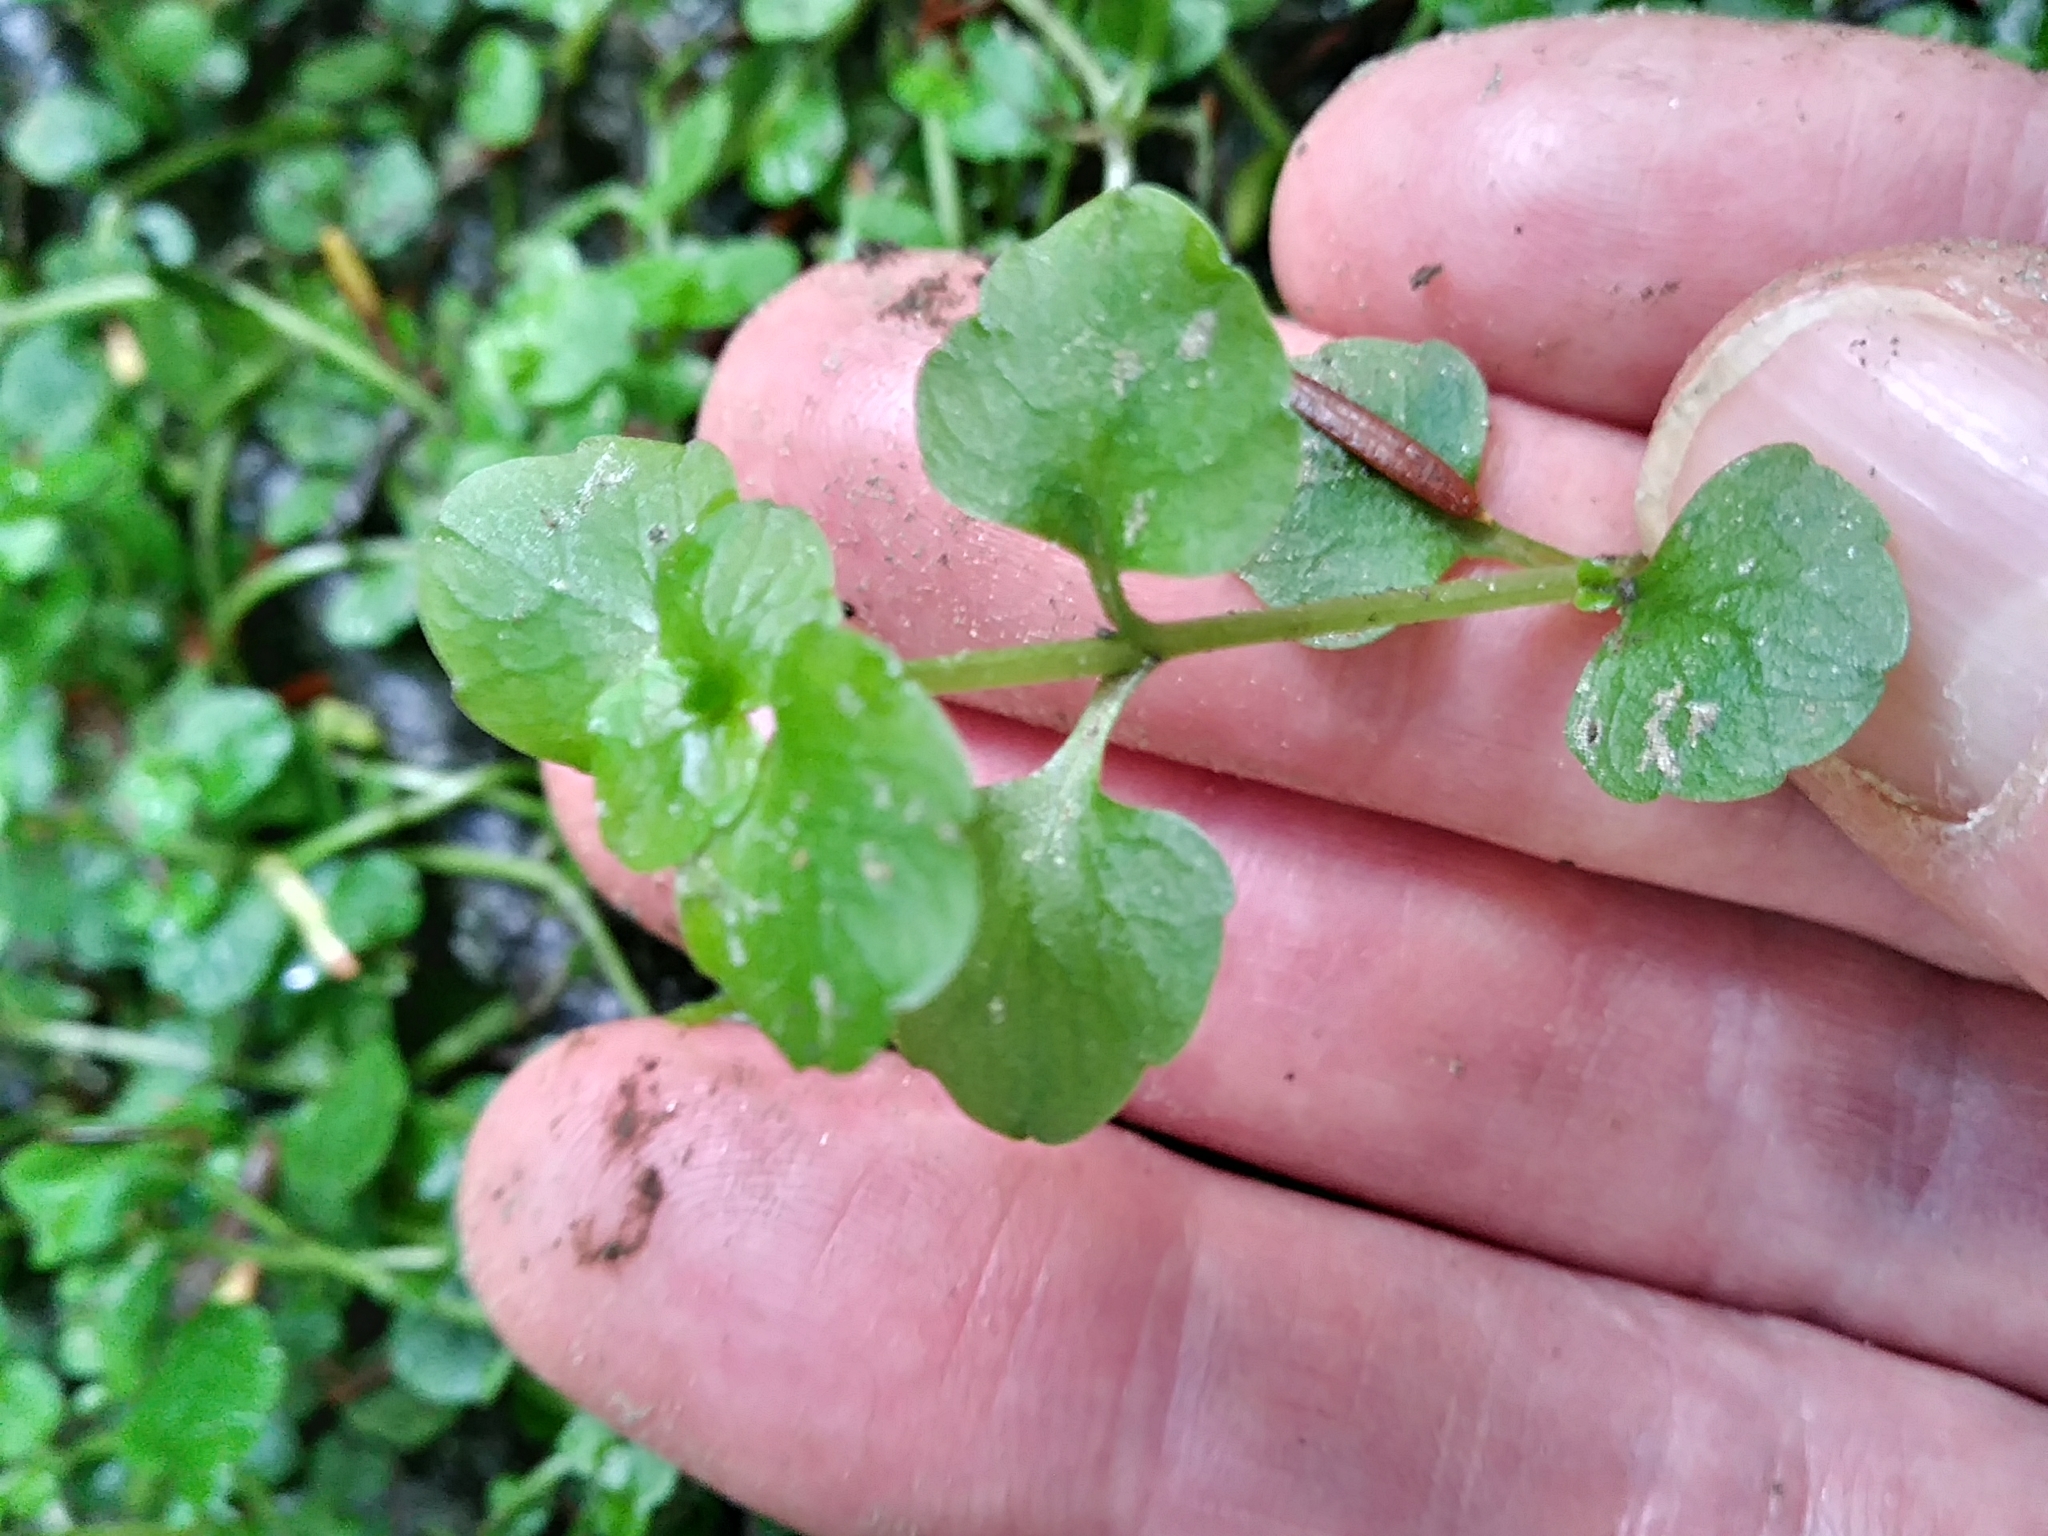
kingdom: Plantae
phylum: Tracheophyta
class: Magnoliopsida
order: Saxifragales
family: Saxifragaceae
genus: Chrysosplenium
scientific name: Chrysosplenium americanum
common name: American golden-saxifrage
